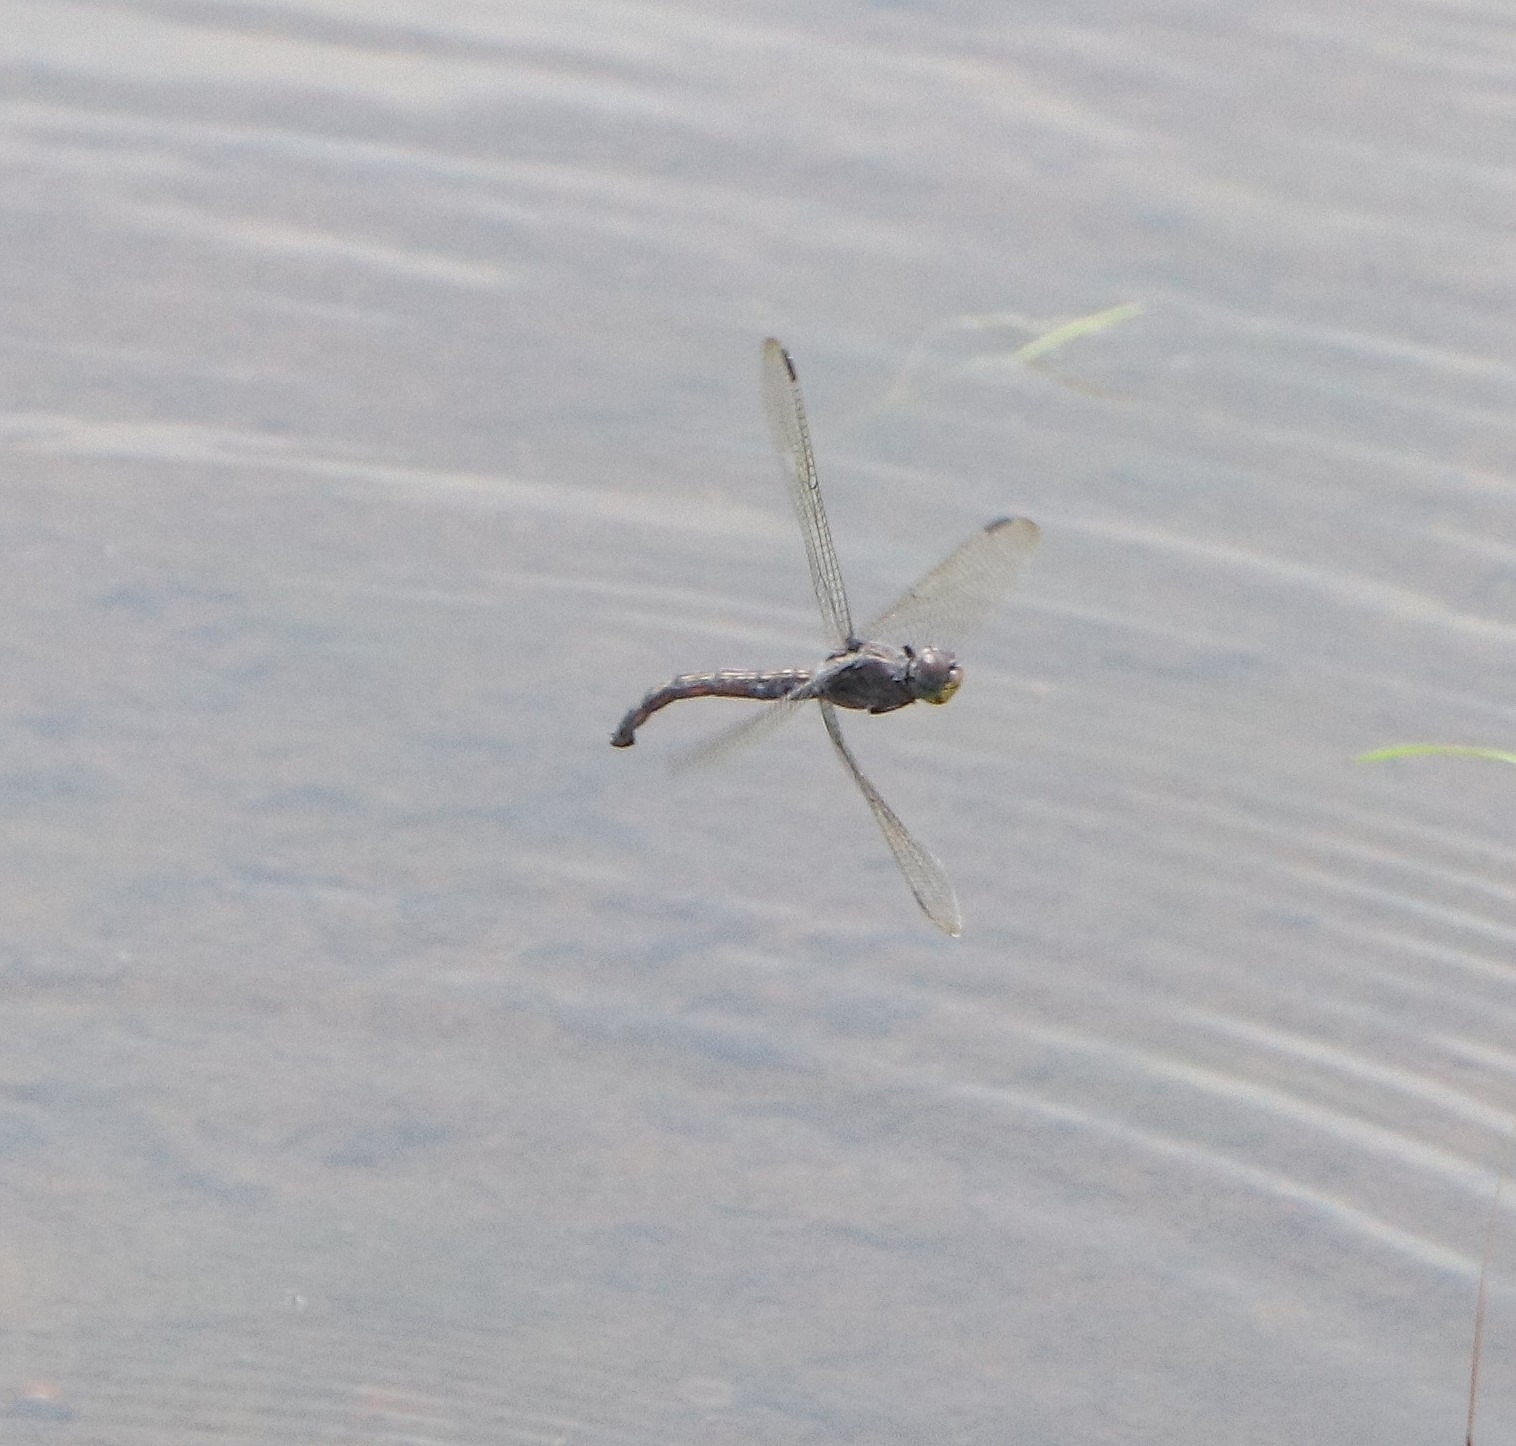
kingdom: Animalia
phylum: Arthropoda
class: Insecta
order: Odonata
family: Libellulidae
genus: Potamarcha
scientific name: Potamarcha congener
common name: Blue chaser
